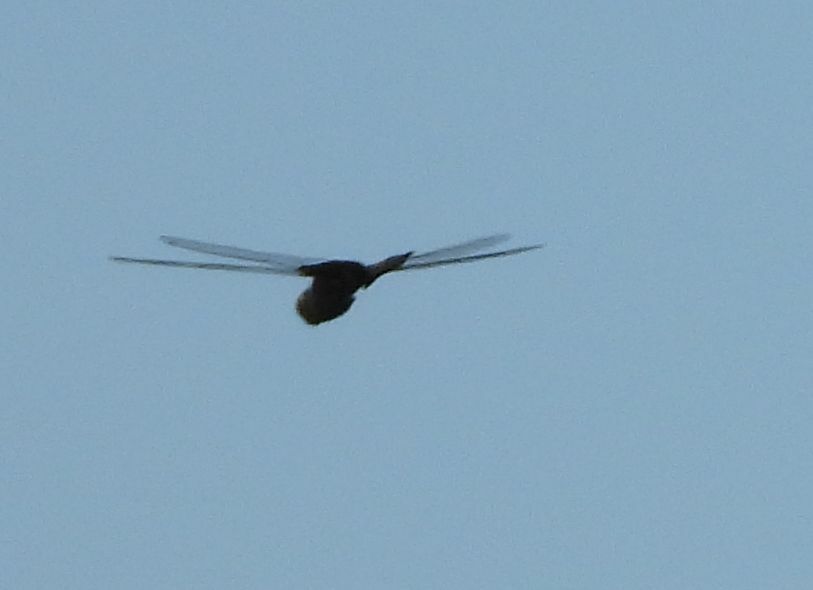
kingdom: Animalia
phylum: Arthropoda
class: Insecta
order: Odonata
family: Libellulidae
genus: Tramea
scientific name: Tramea lacerata
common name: Black saddlebags
